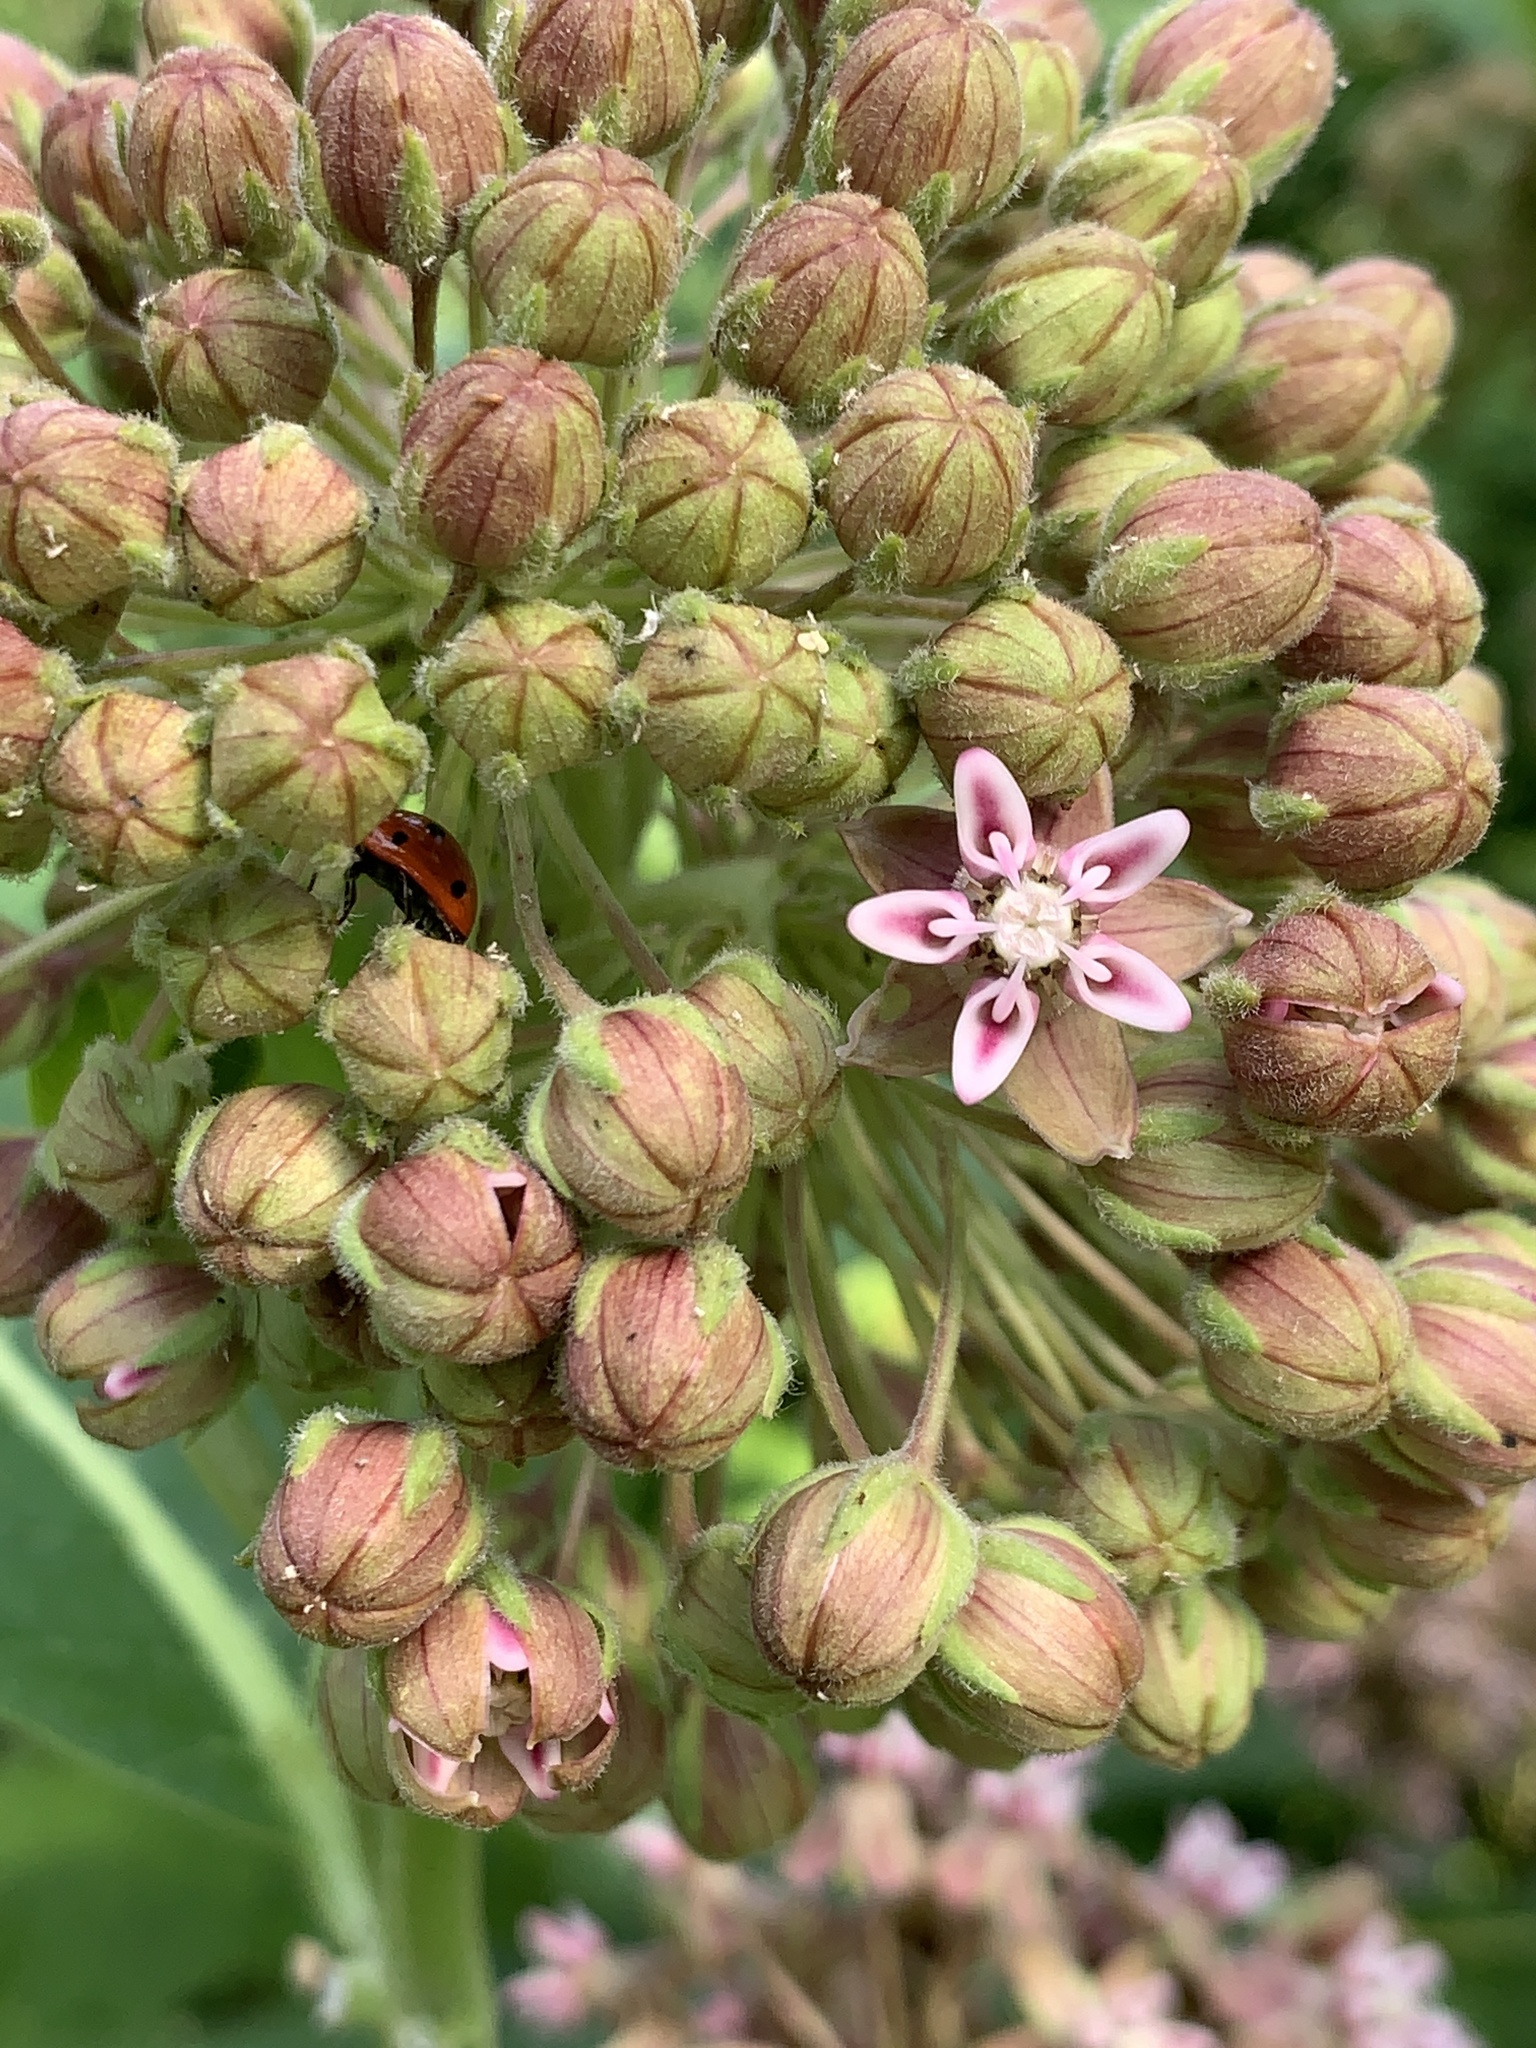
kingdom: Plantae
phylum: Tracheophyta
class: Magnoliopsida
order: Gentianales
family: Apocynaceae
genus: Asclepias
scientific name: Asclepias syriaca
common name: Common milkweed
